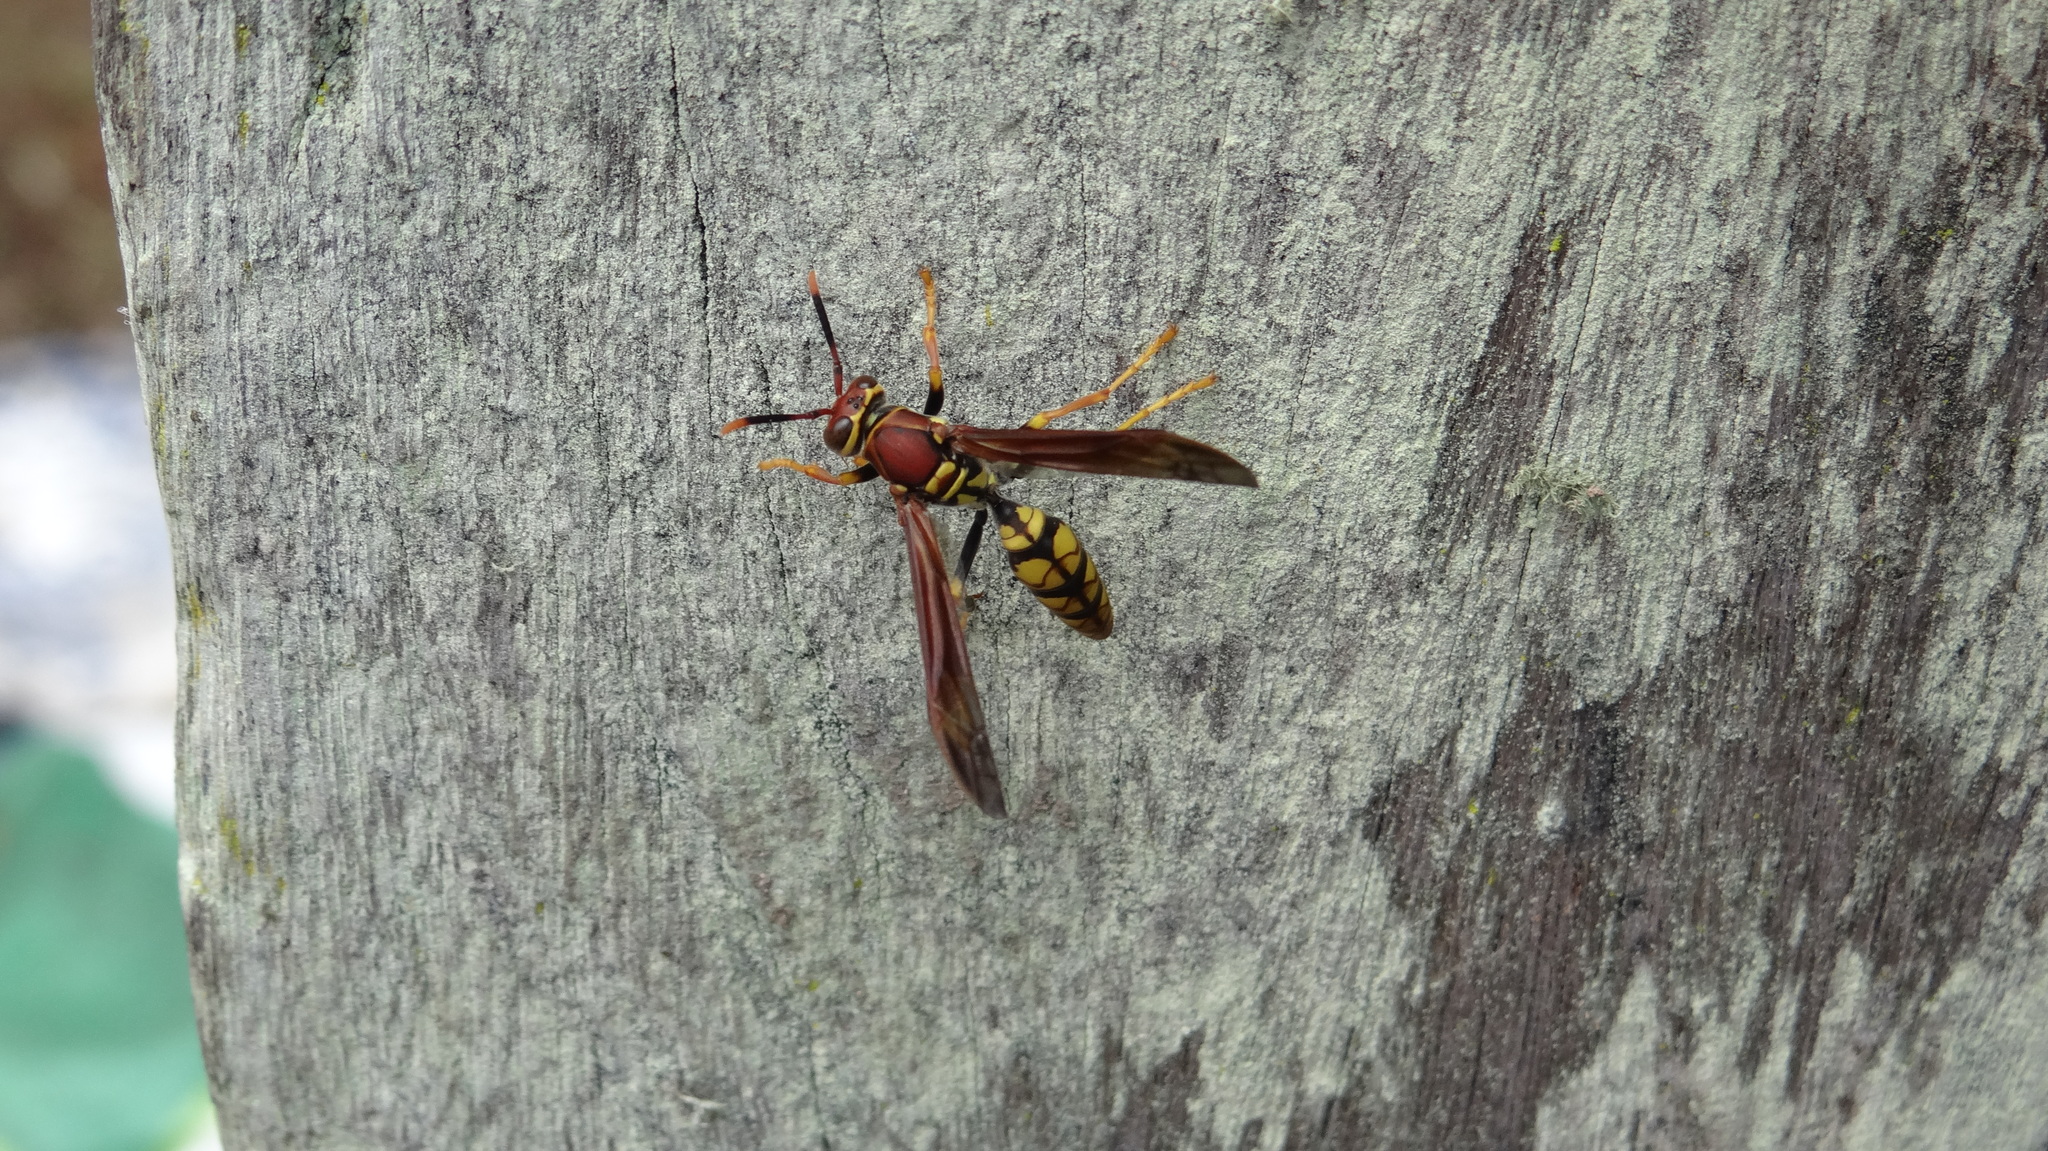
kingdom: Animalia
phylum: Arthropoda
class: Insecta
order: Hymenoptera
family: Eumenidae
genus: Polistes
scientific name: Polistes myersi
